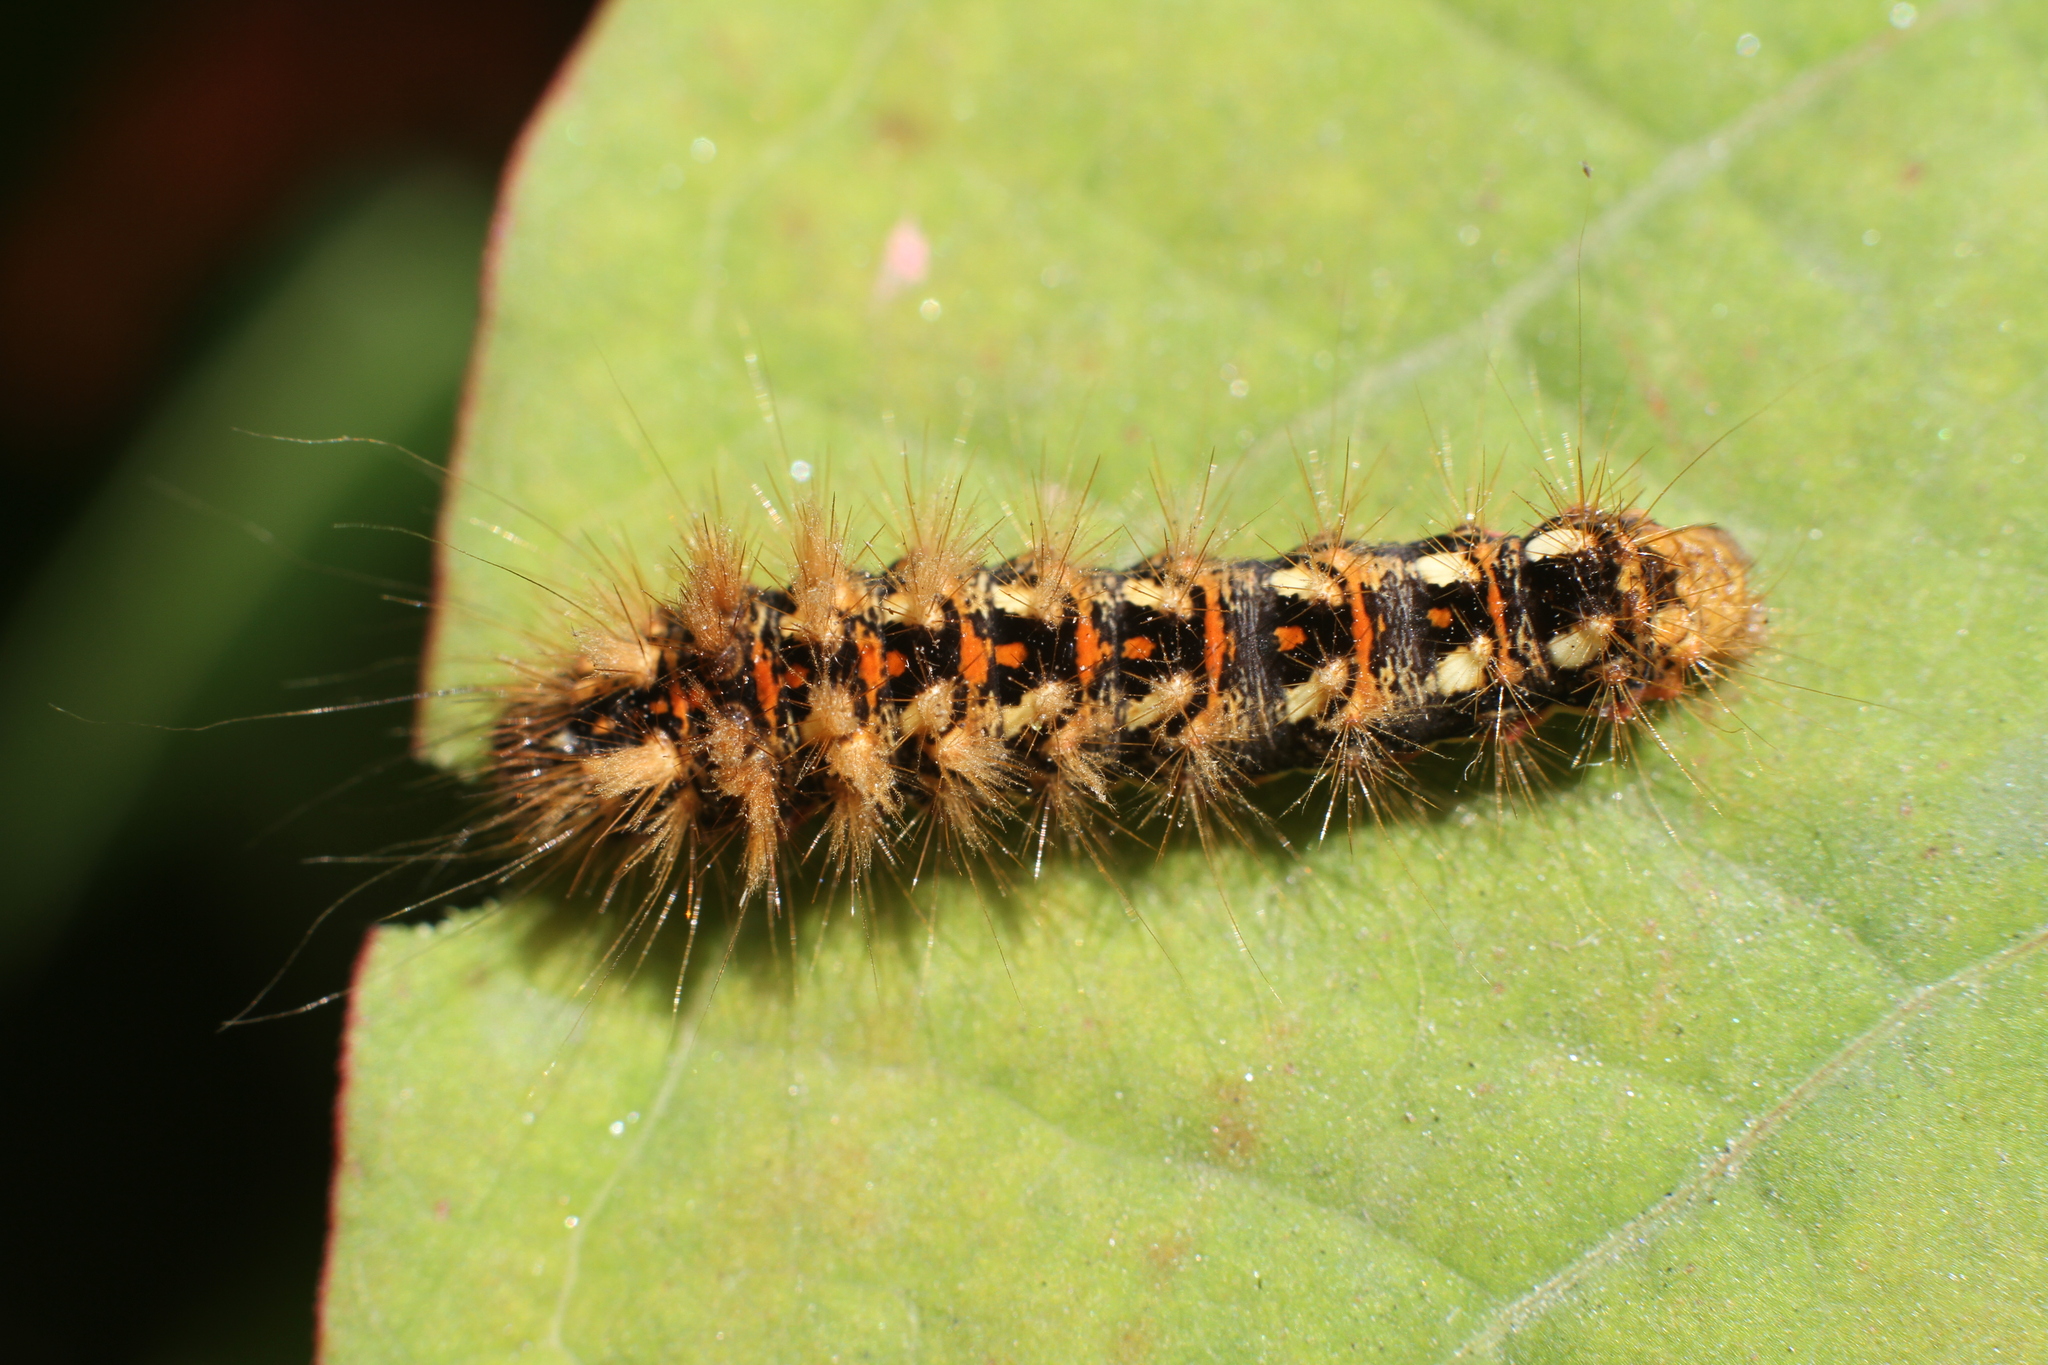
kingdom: Animalia
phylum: Arthropoda
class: Insecta
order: Lepidoptera
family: Noctuidae
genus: Acronicta
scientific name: Acronicta rumicis
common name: Knot grass
